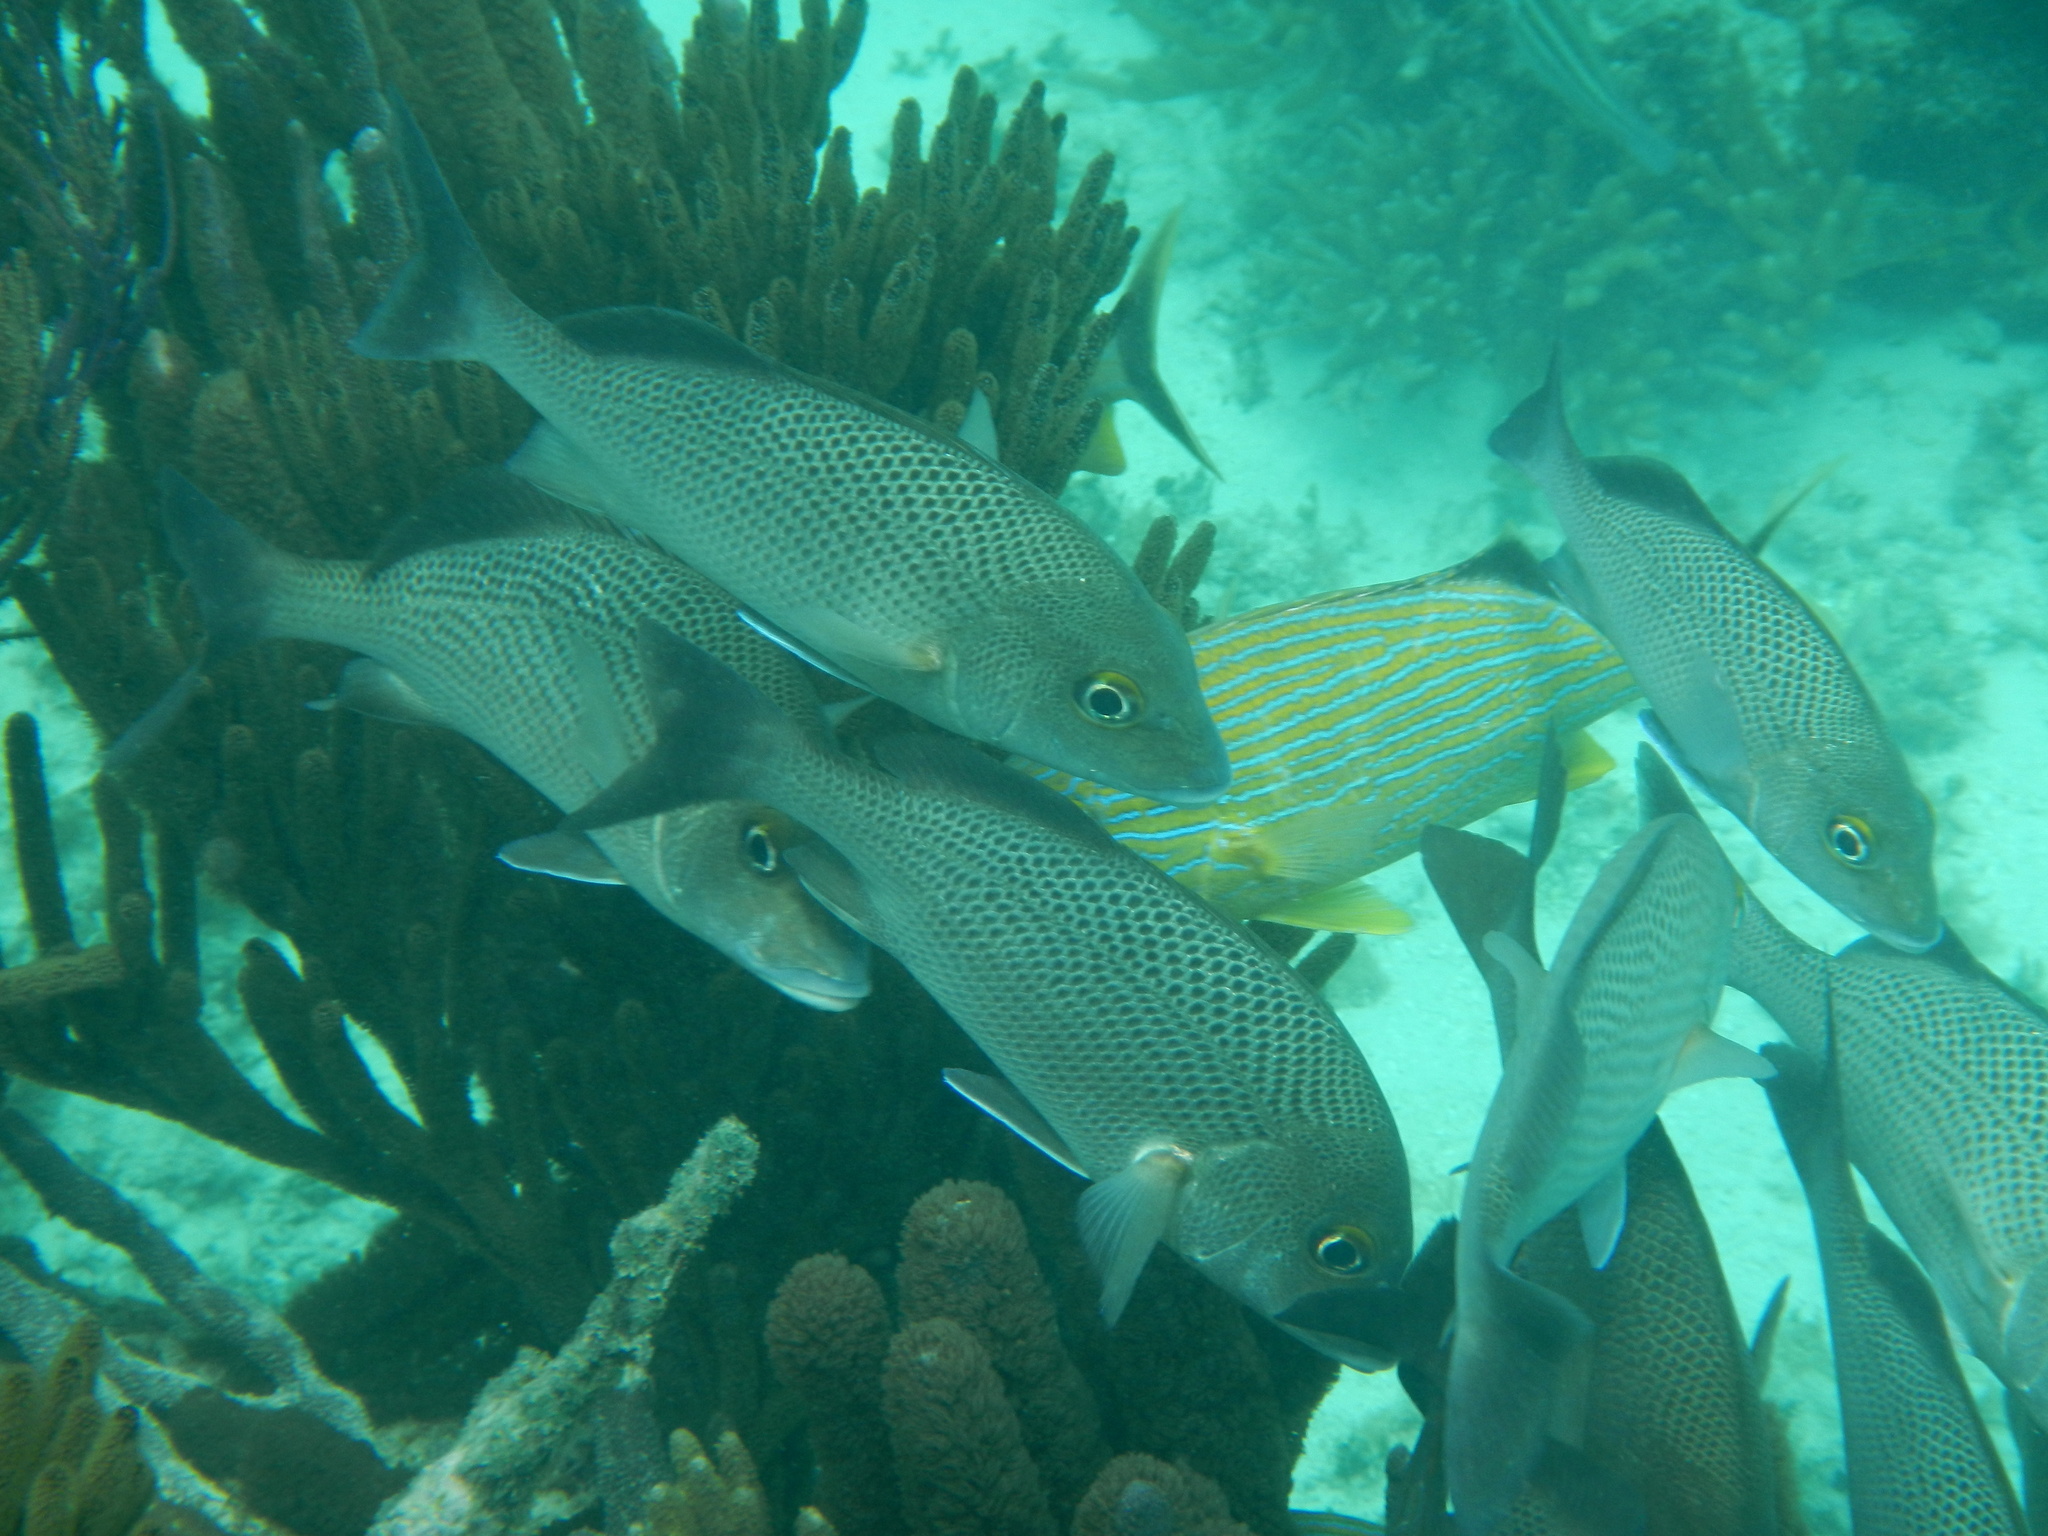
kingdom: Animalia
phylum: Chordata
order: Perciformes
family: Haemulidae
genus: Haemulon
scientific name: Haemulon parra
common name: Sailor's choice
